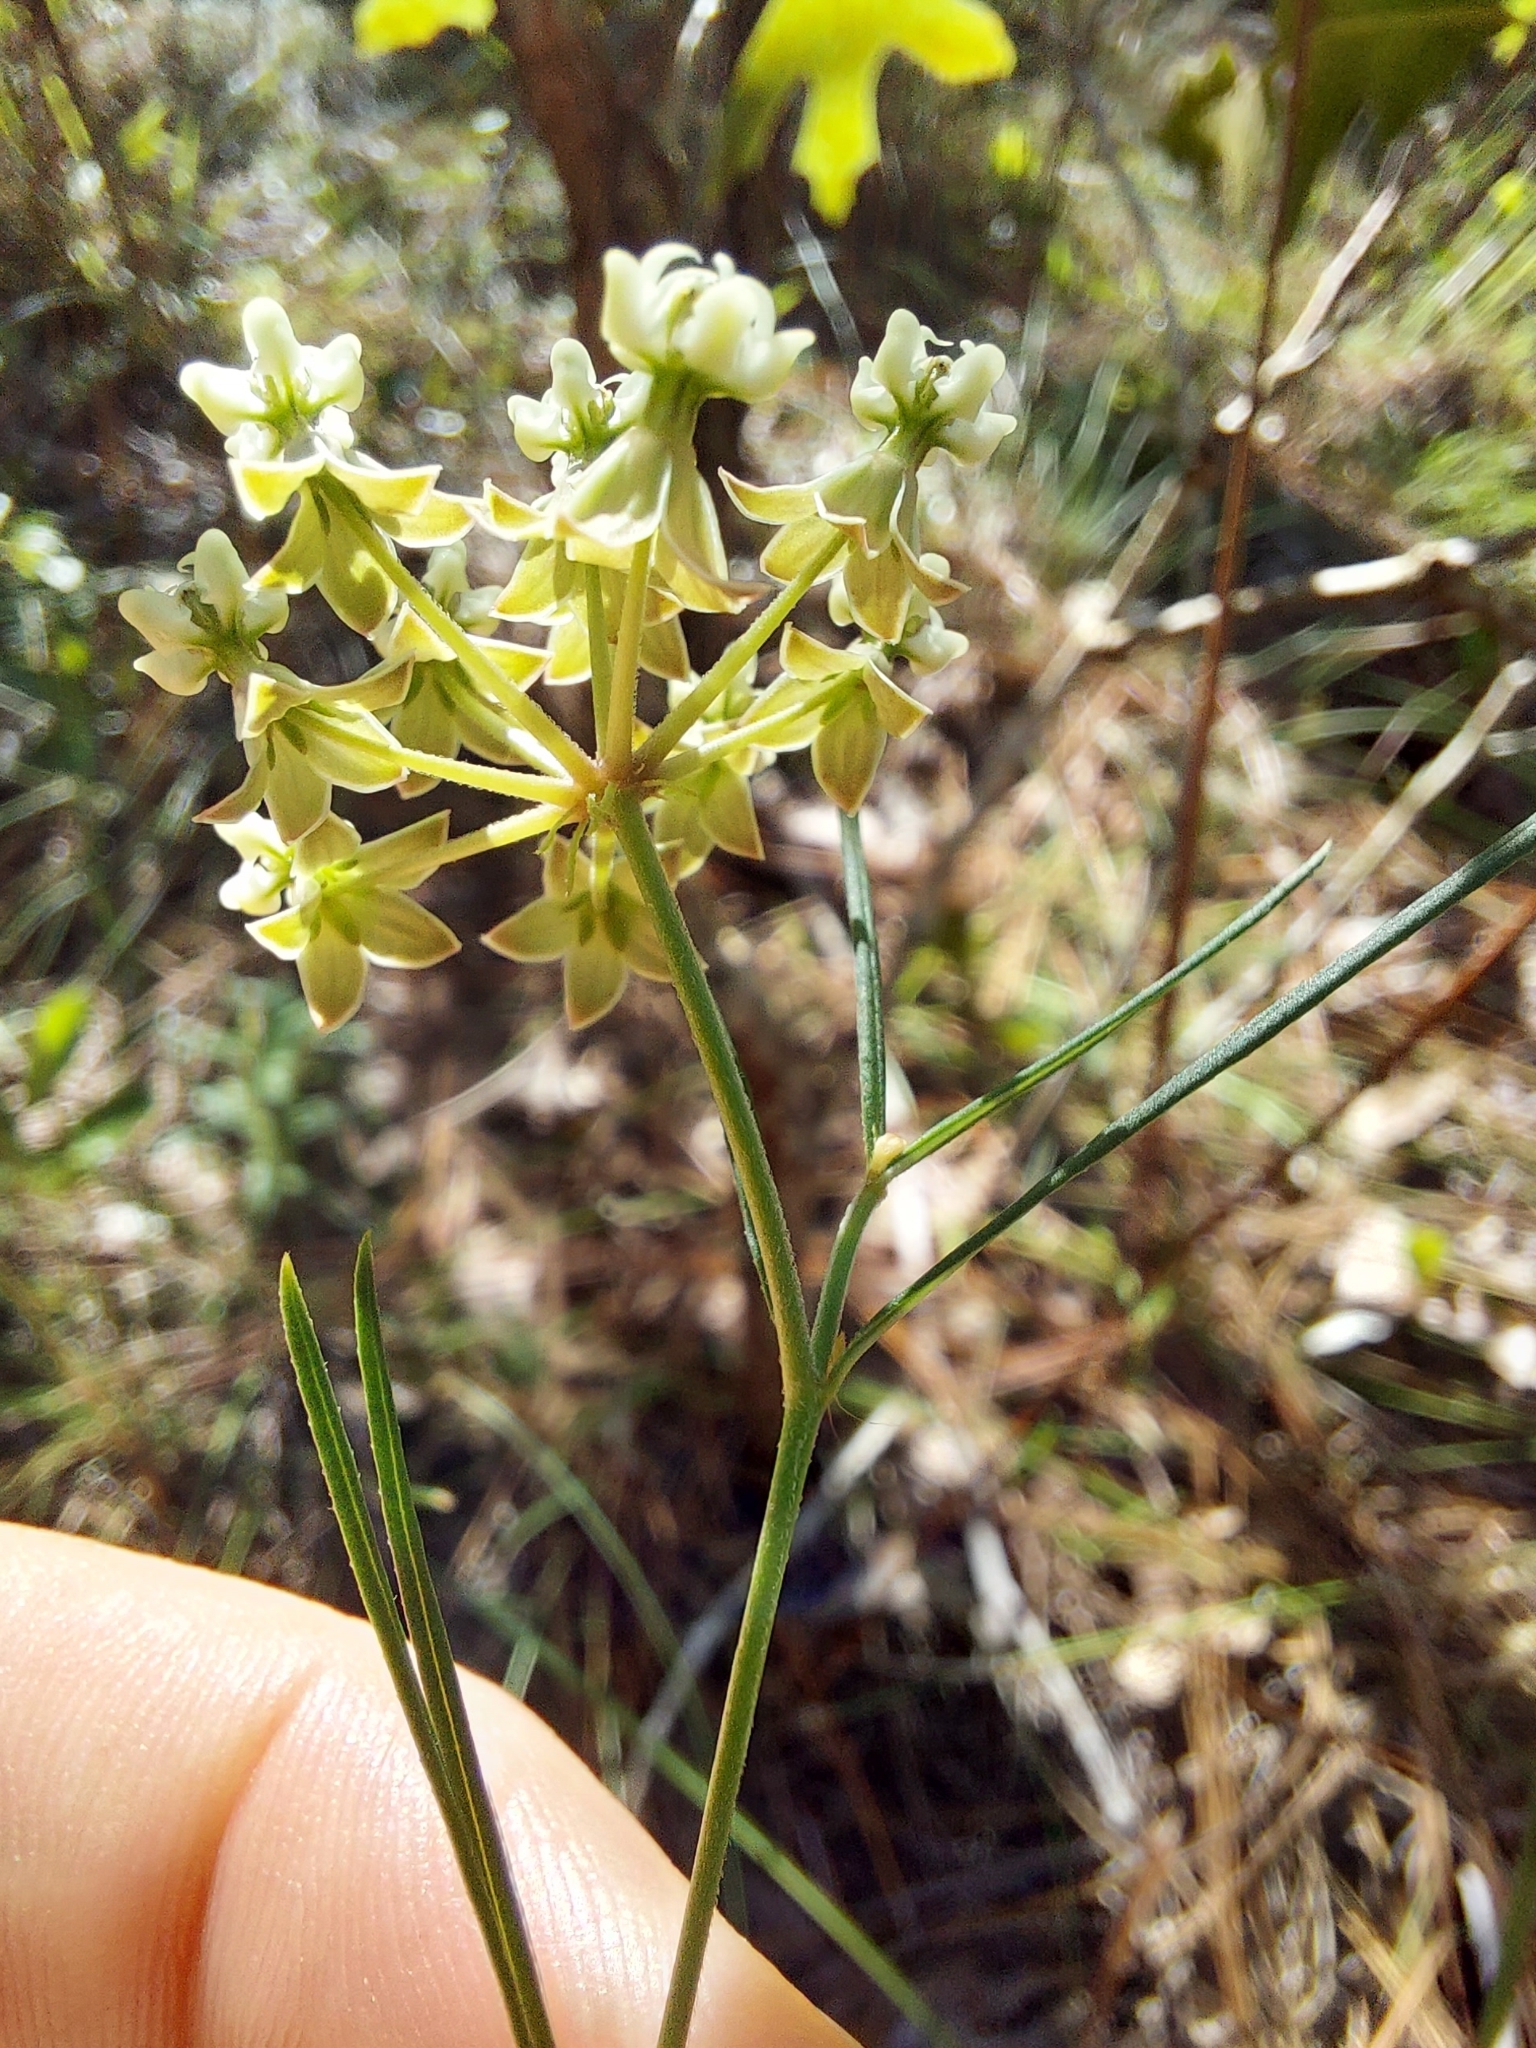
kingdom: Plantae
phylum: Tracheophyta
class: Magnoliopsida
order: Gentianales
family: Apocynaceae
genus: Asclepias
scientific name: Asclepias verticillata
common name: Eastern whorled milkweed
